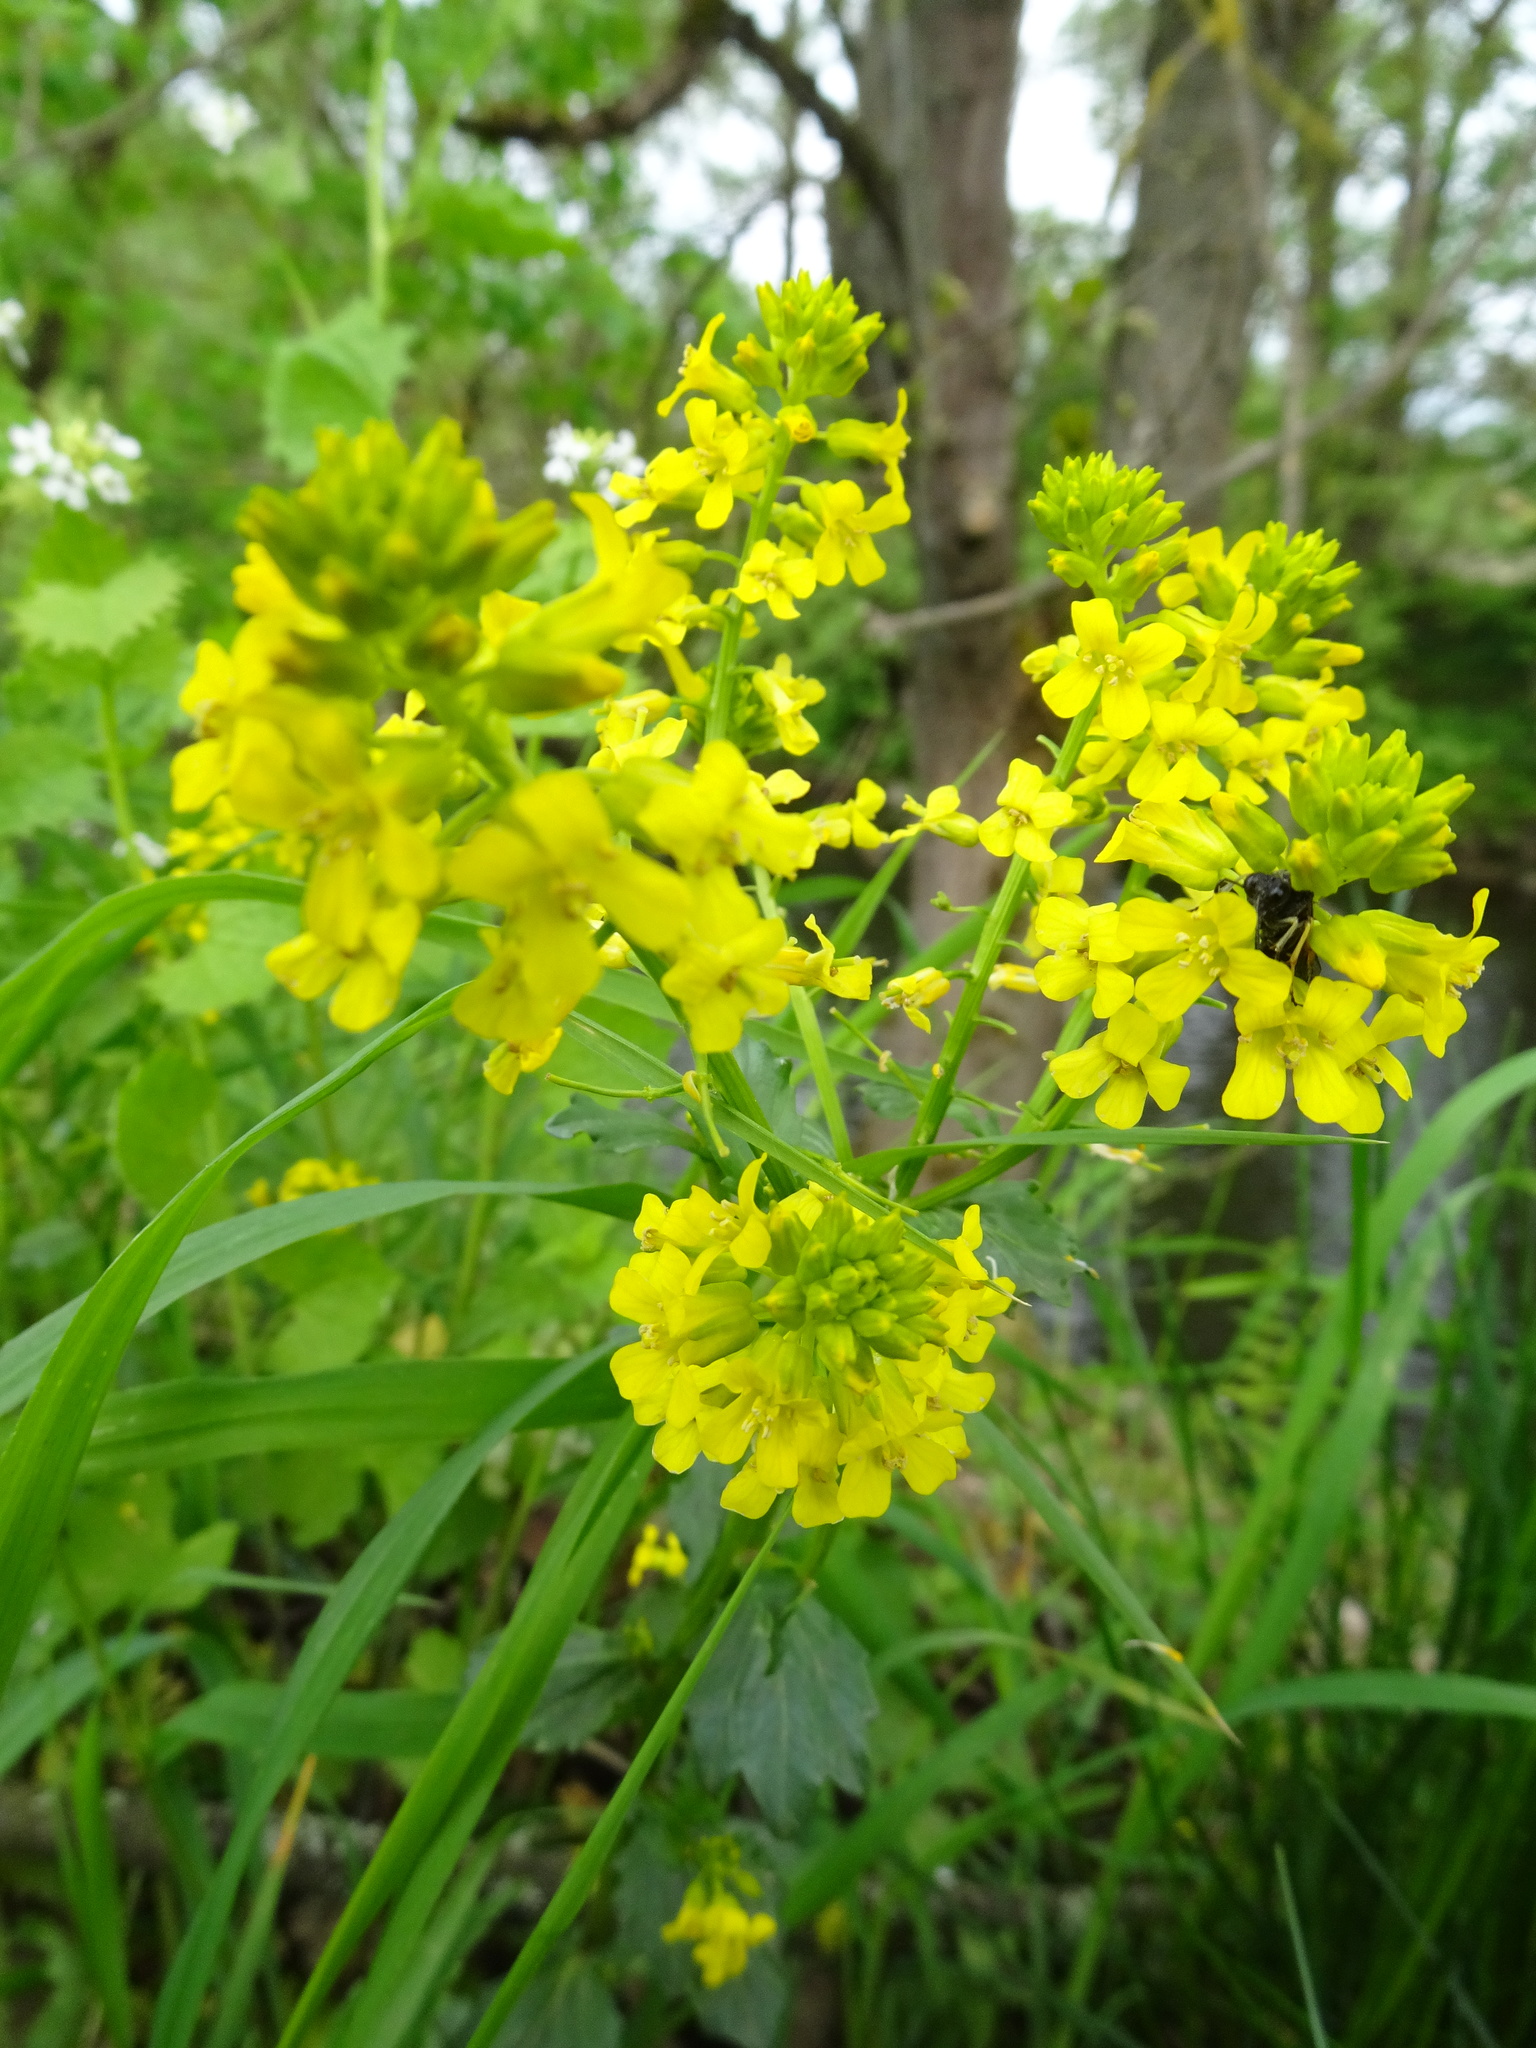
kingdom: Plantae
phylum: Tracheophyta
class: Magnoliopsida
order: Brassicales
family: Brassicaceae
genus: Barbarea
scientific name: Barbarea vulgaris
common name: Cressy-greens
